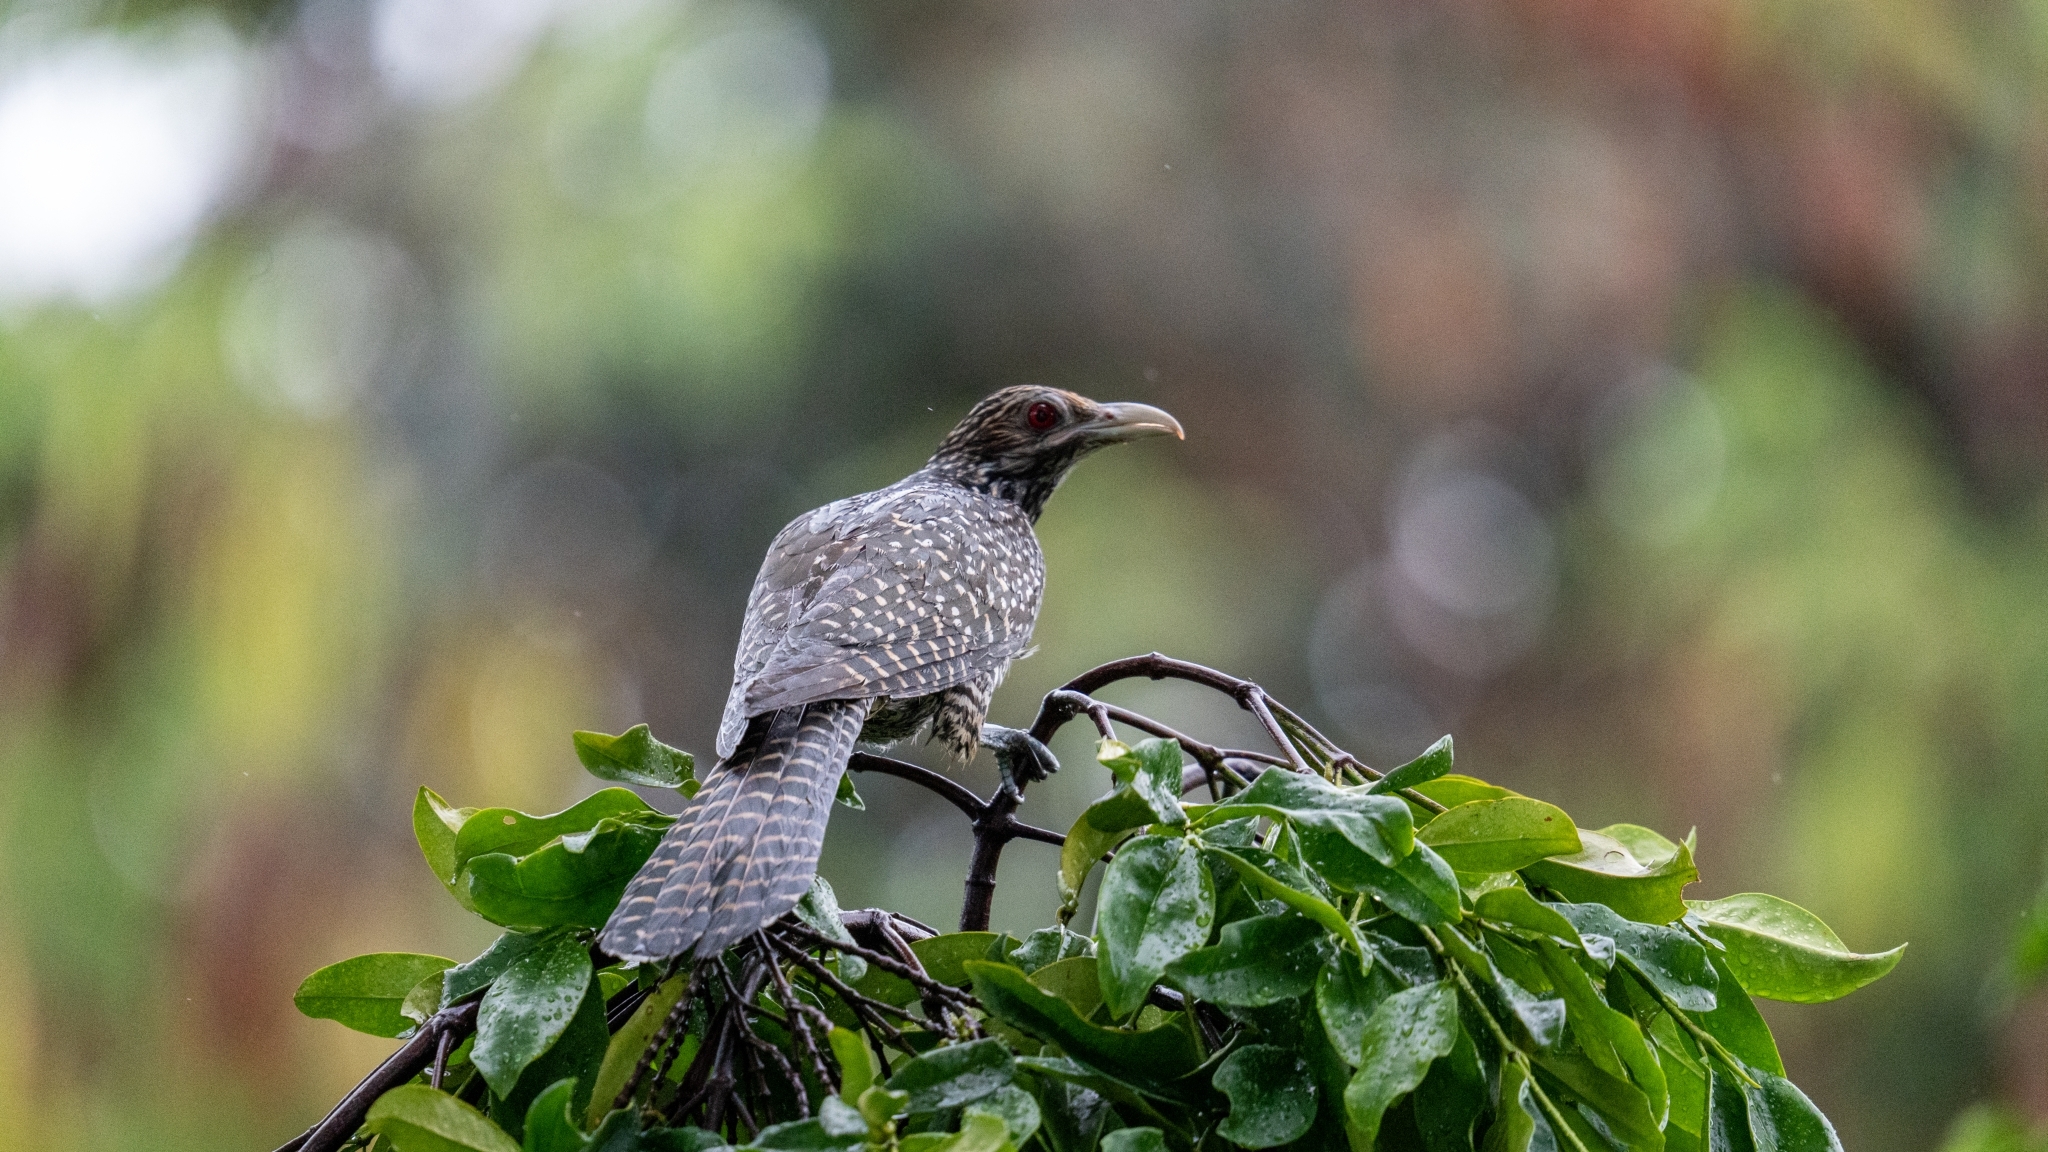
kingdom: Animalia
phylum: Chordata
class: Aves
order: Cuculiformes
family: Cuculidae
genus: Eudynamys
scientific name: Eudynamys scolopaceus
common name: Asian koel
